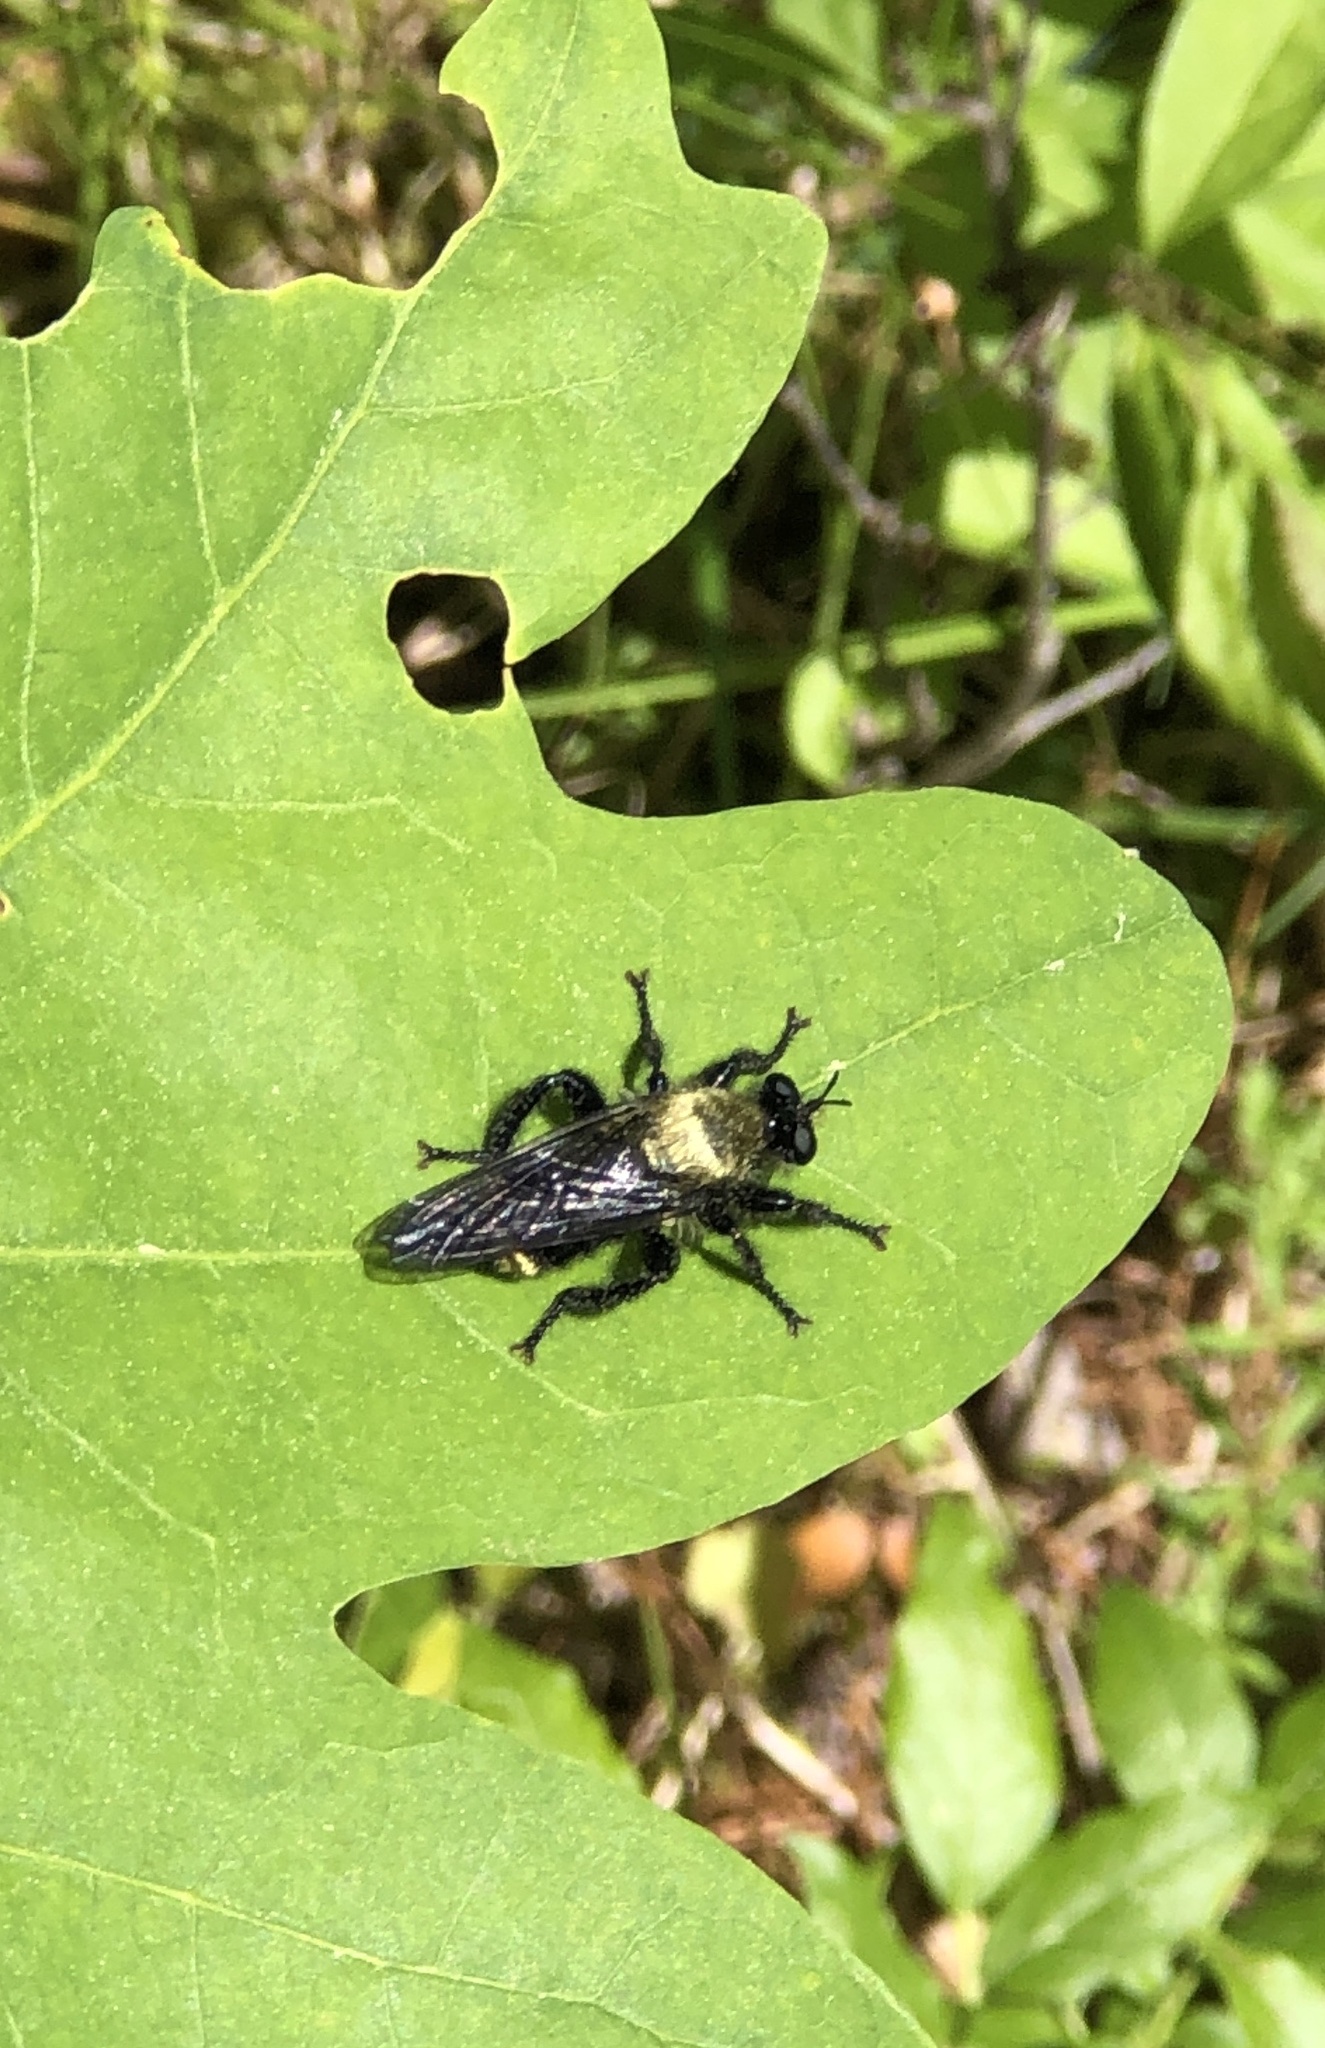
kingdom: Animalia
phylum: Arthropoda
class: Insecta
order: Diptera
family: Asilidae
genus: Laphria
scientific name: Laphria divisor
